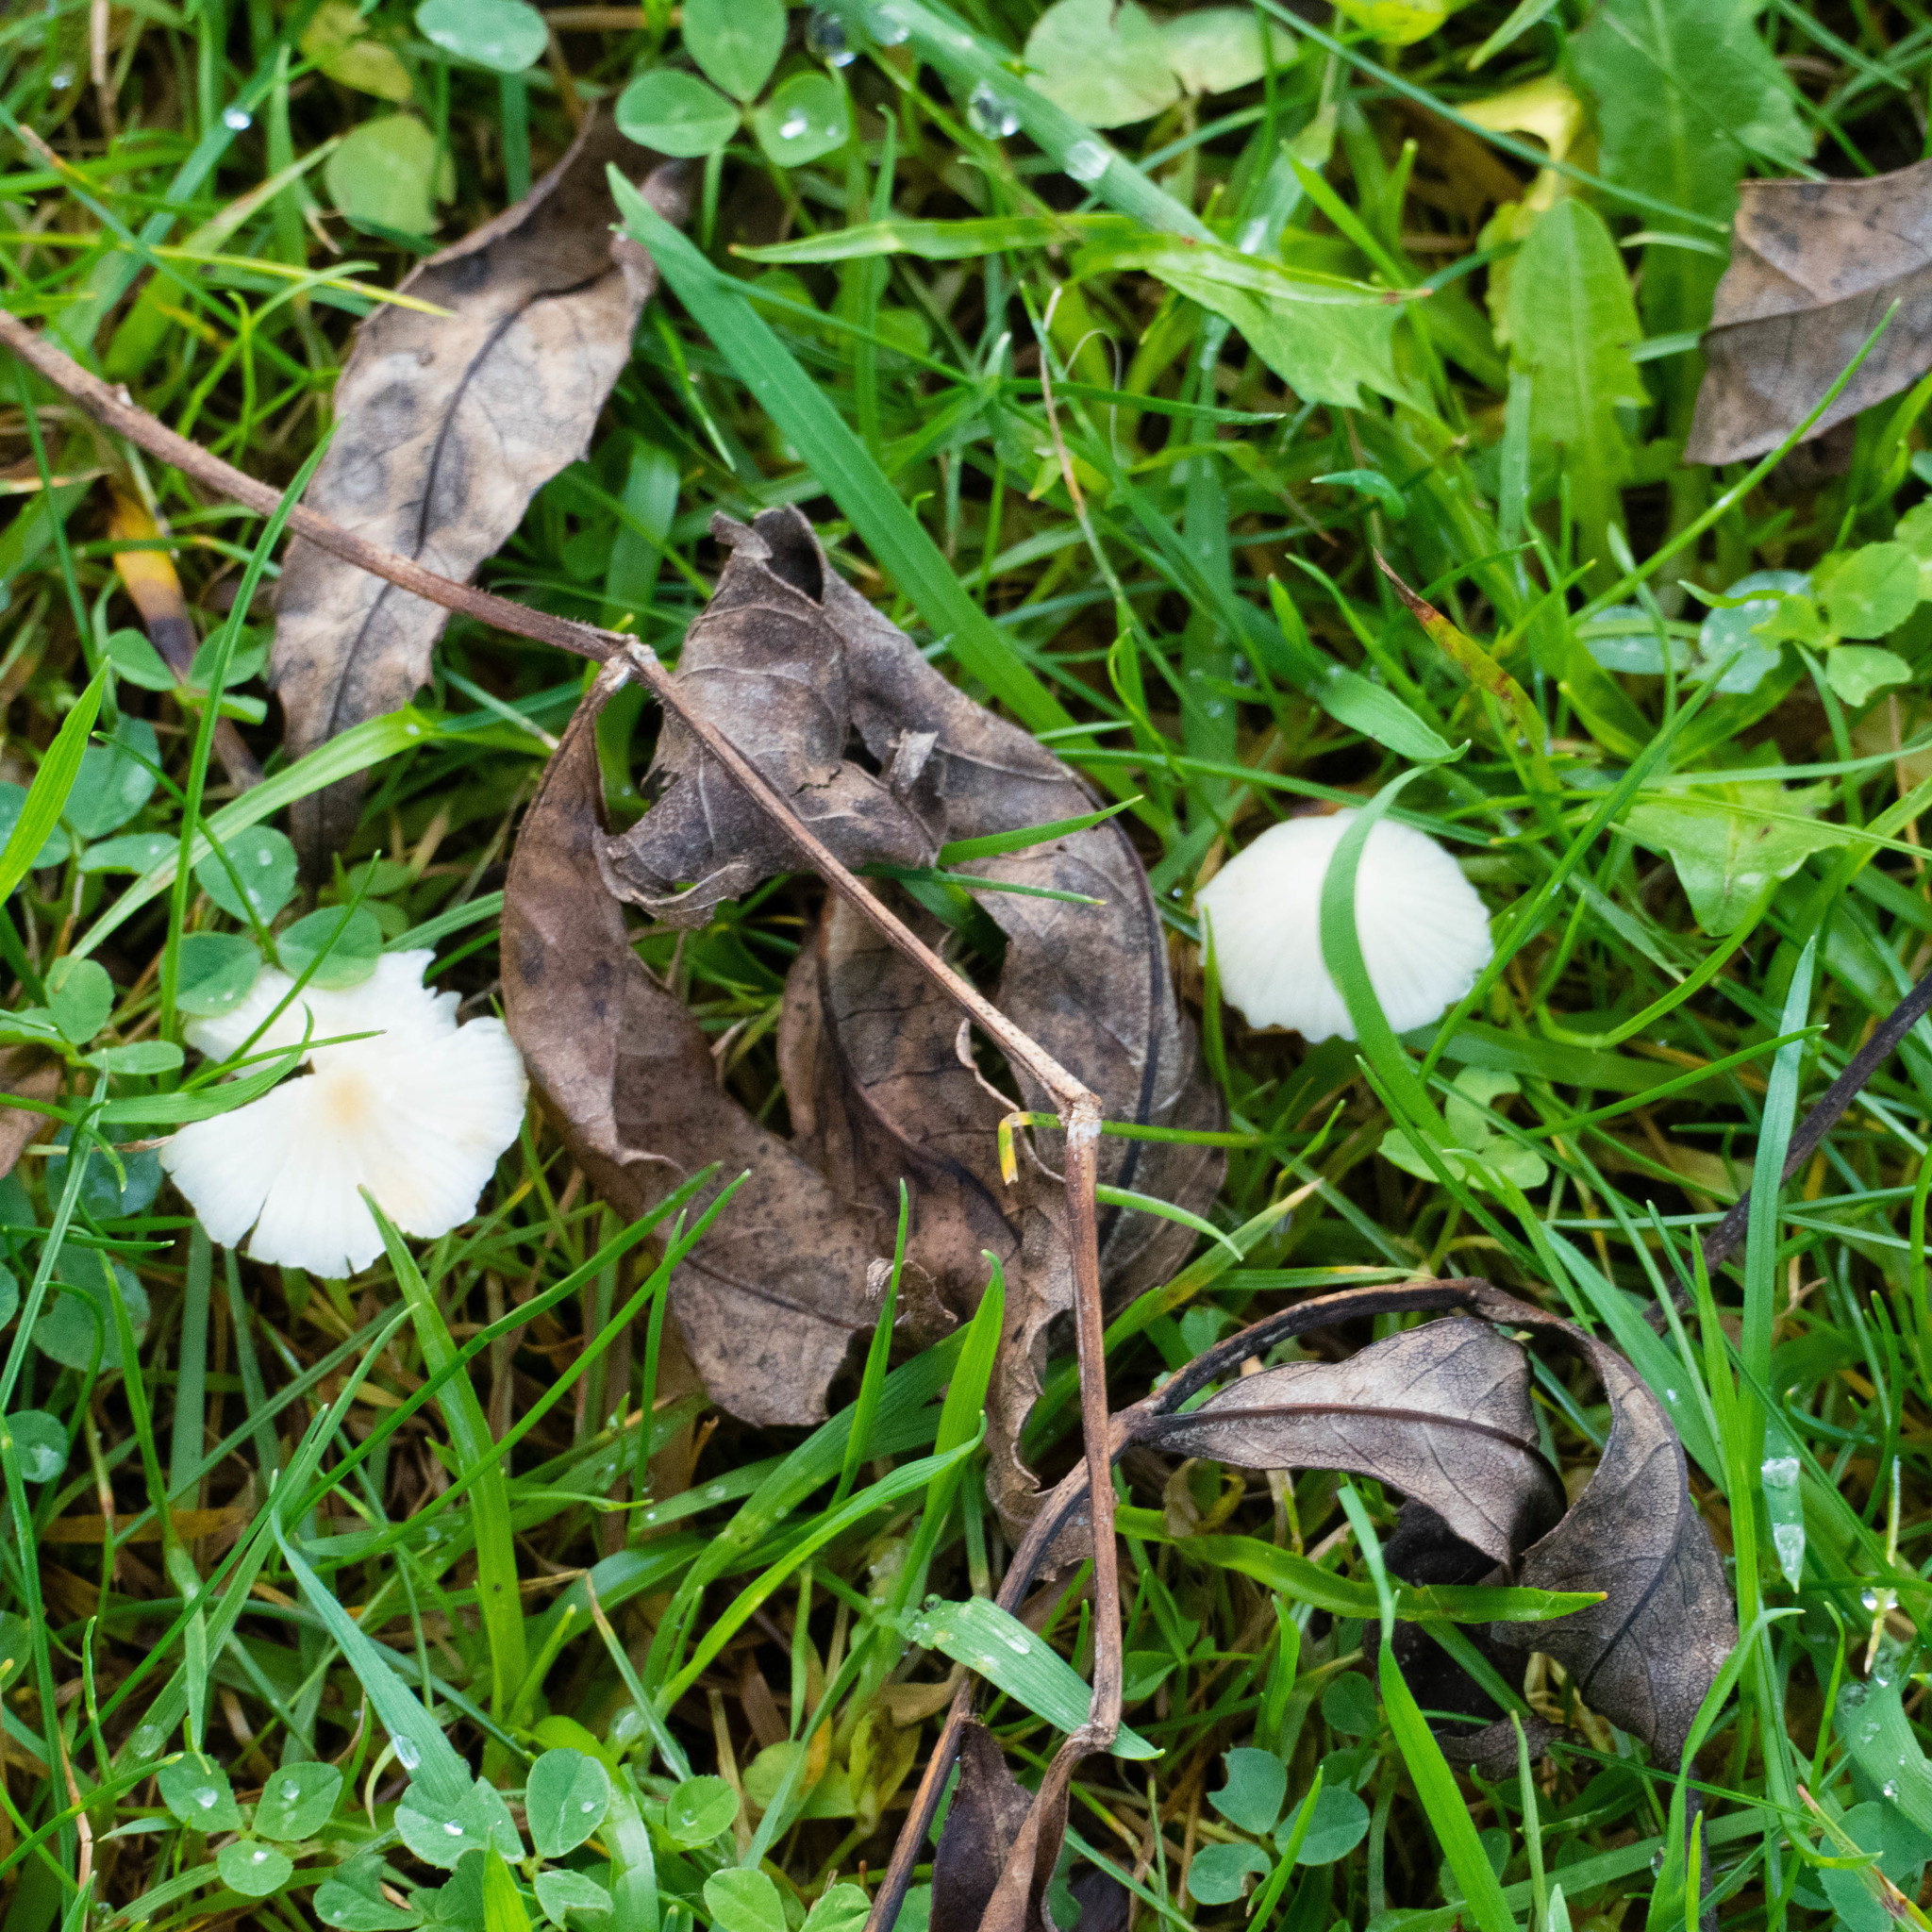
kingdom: Fungi
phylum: Basidiomycota
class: Agaricomycetes
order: Agaricales
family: Mycenaceae
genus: Atheniella
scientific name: Atheniella flavoalba
